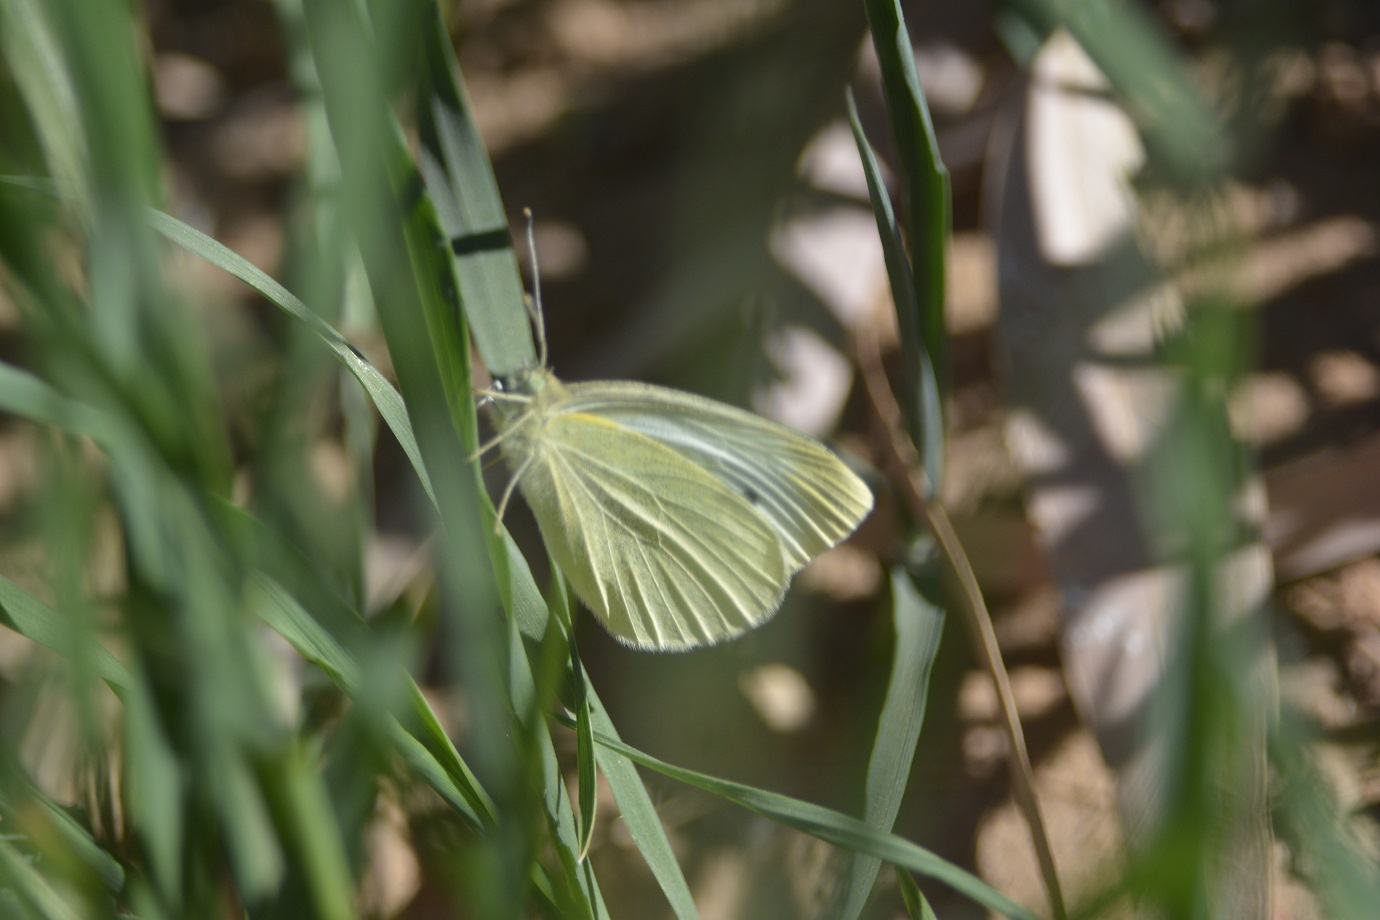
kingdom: Animalia
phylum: Arthropoda
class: Insecta
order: Lepidoptera
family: Pieridae
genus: Pieris
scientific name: Pieris rapae
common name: Small white
